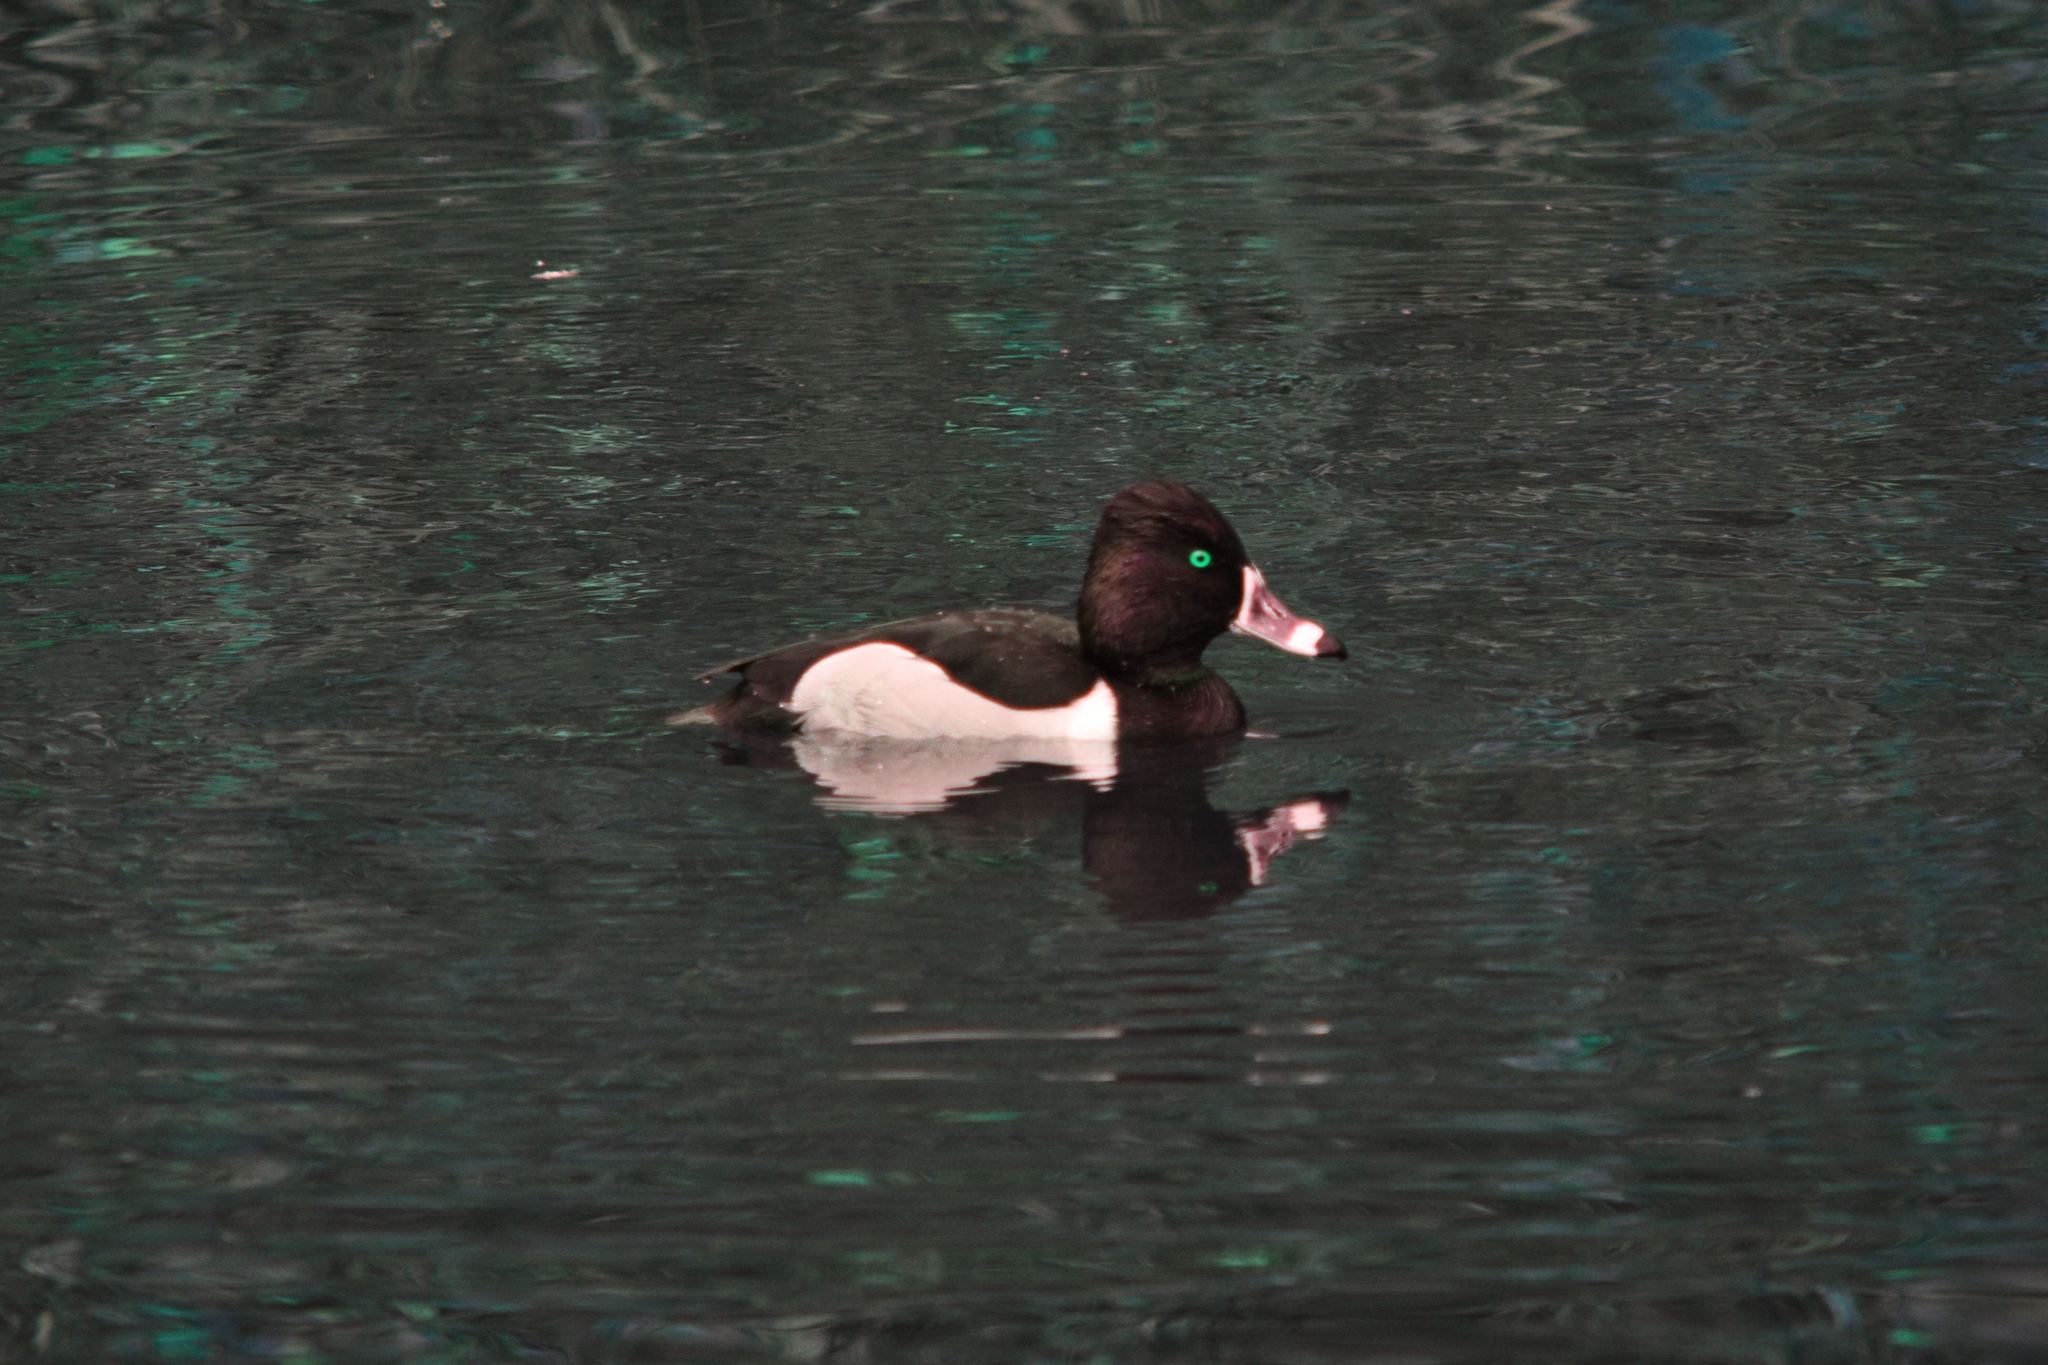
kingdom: Animalia
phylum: Chordata
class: Aves
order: Anseriformes
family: Anatidae
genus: Aythya
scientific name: Aythya collaris
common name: Ring-necked duck
